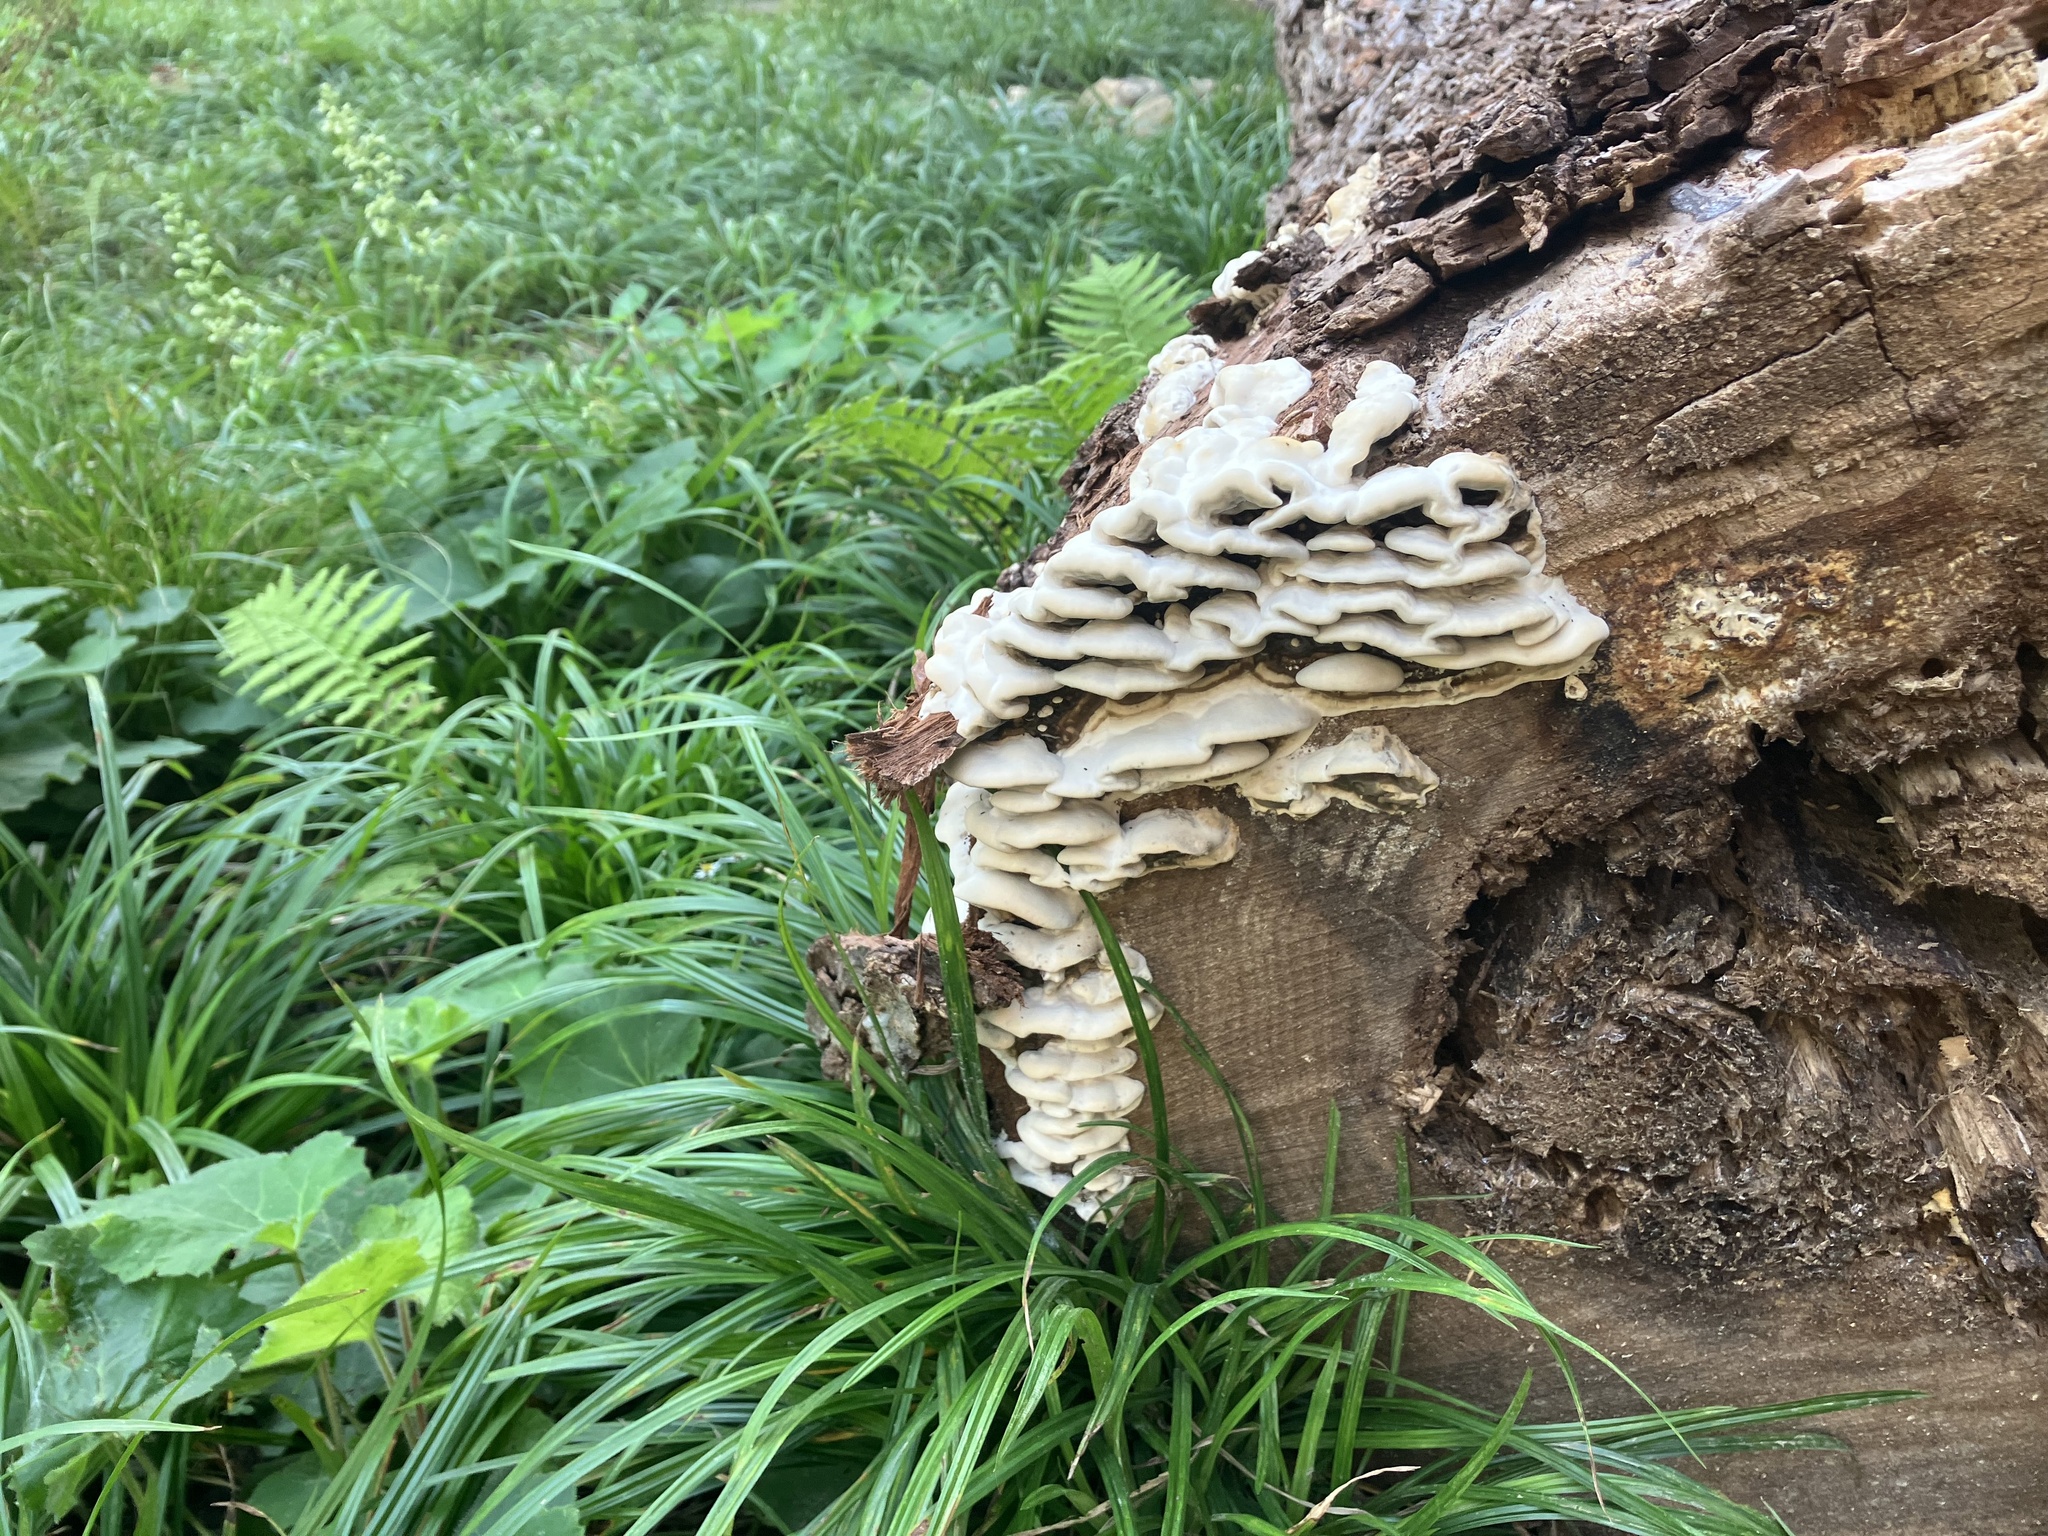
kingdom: Fungi
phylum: Basidiomycota
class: Agaricomycetes
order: Polyporales
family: Phanerochaetaceae
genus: Bjerkandera
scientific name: Bjerkandera adusta
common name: Smoky bracket
